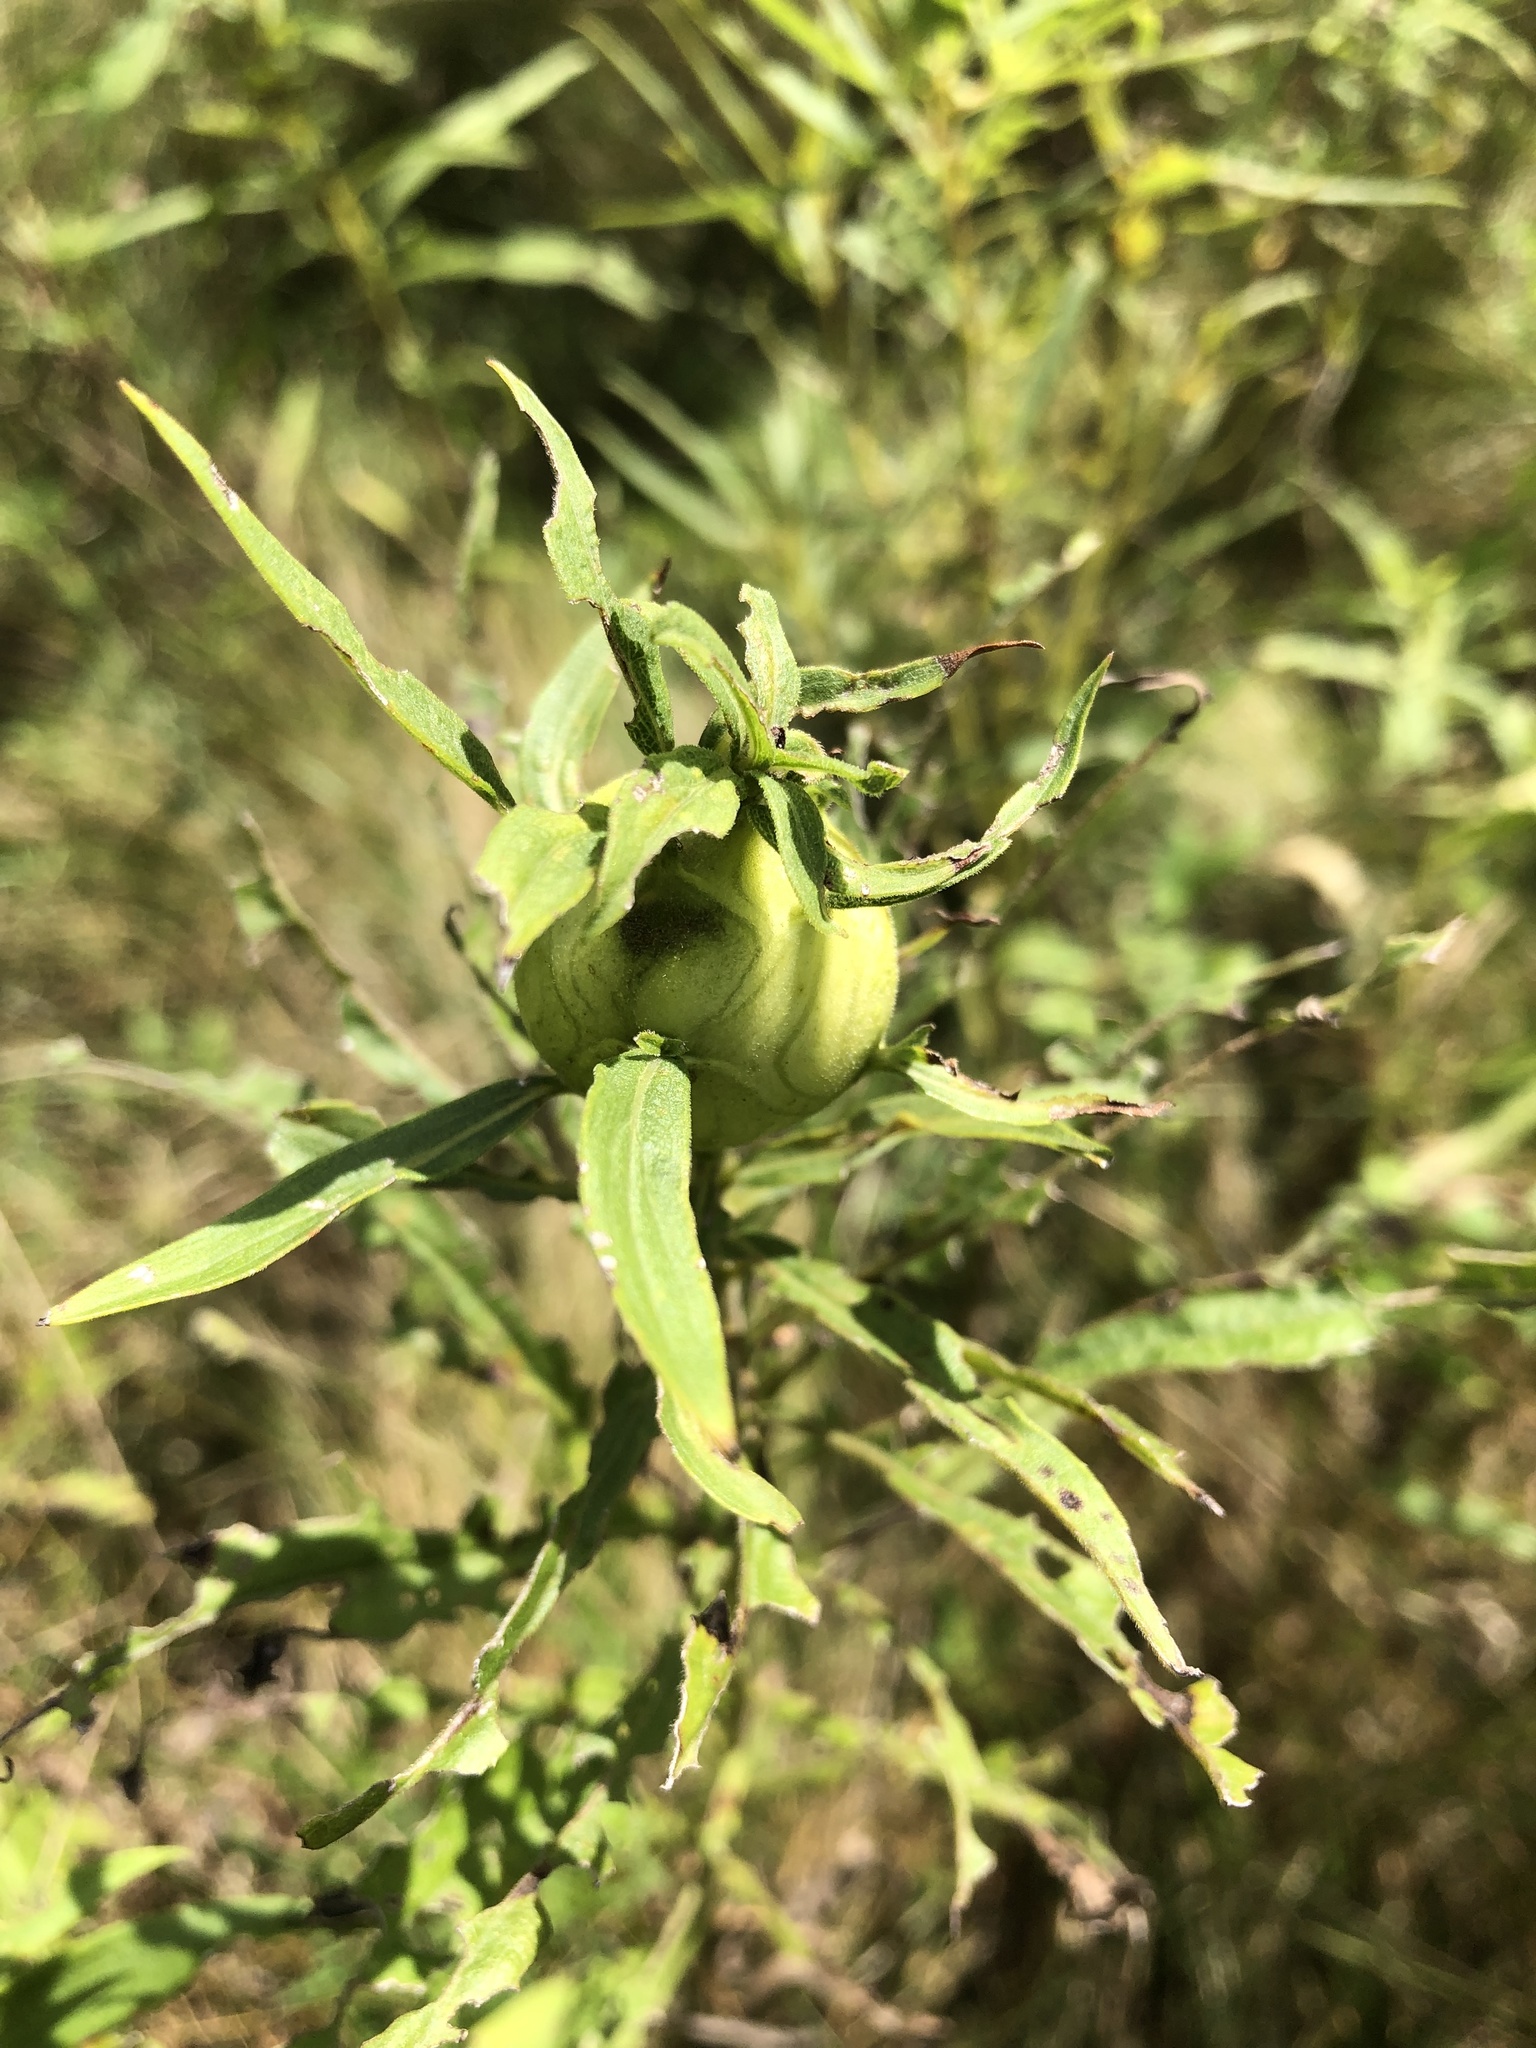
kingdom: Animalia
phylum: Arthropoda
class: Insecta
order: Diptera
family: Tephritidae
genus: Eurosta
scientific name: Eurosta solidaginis
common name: Goldenrod gall fly
